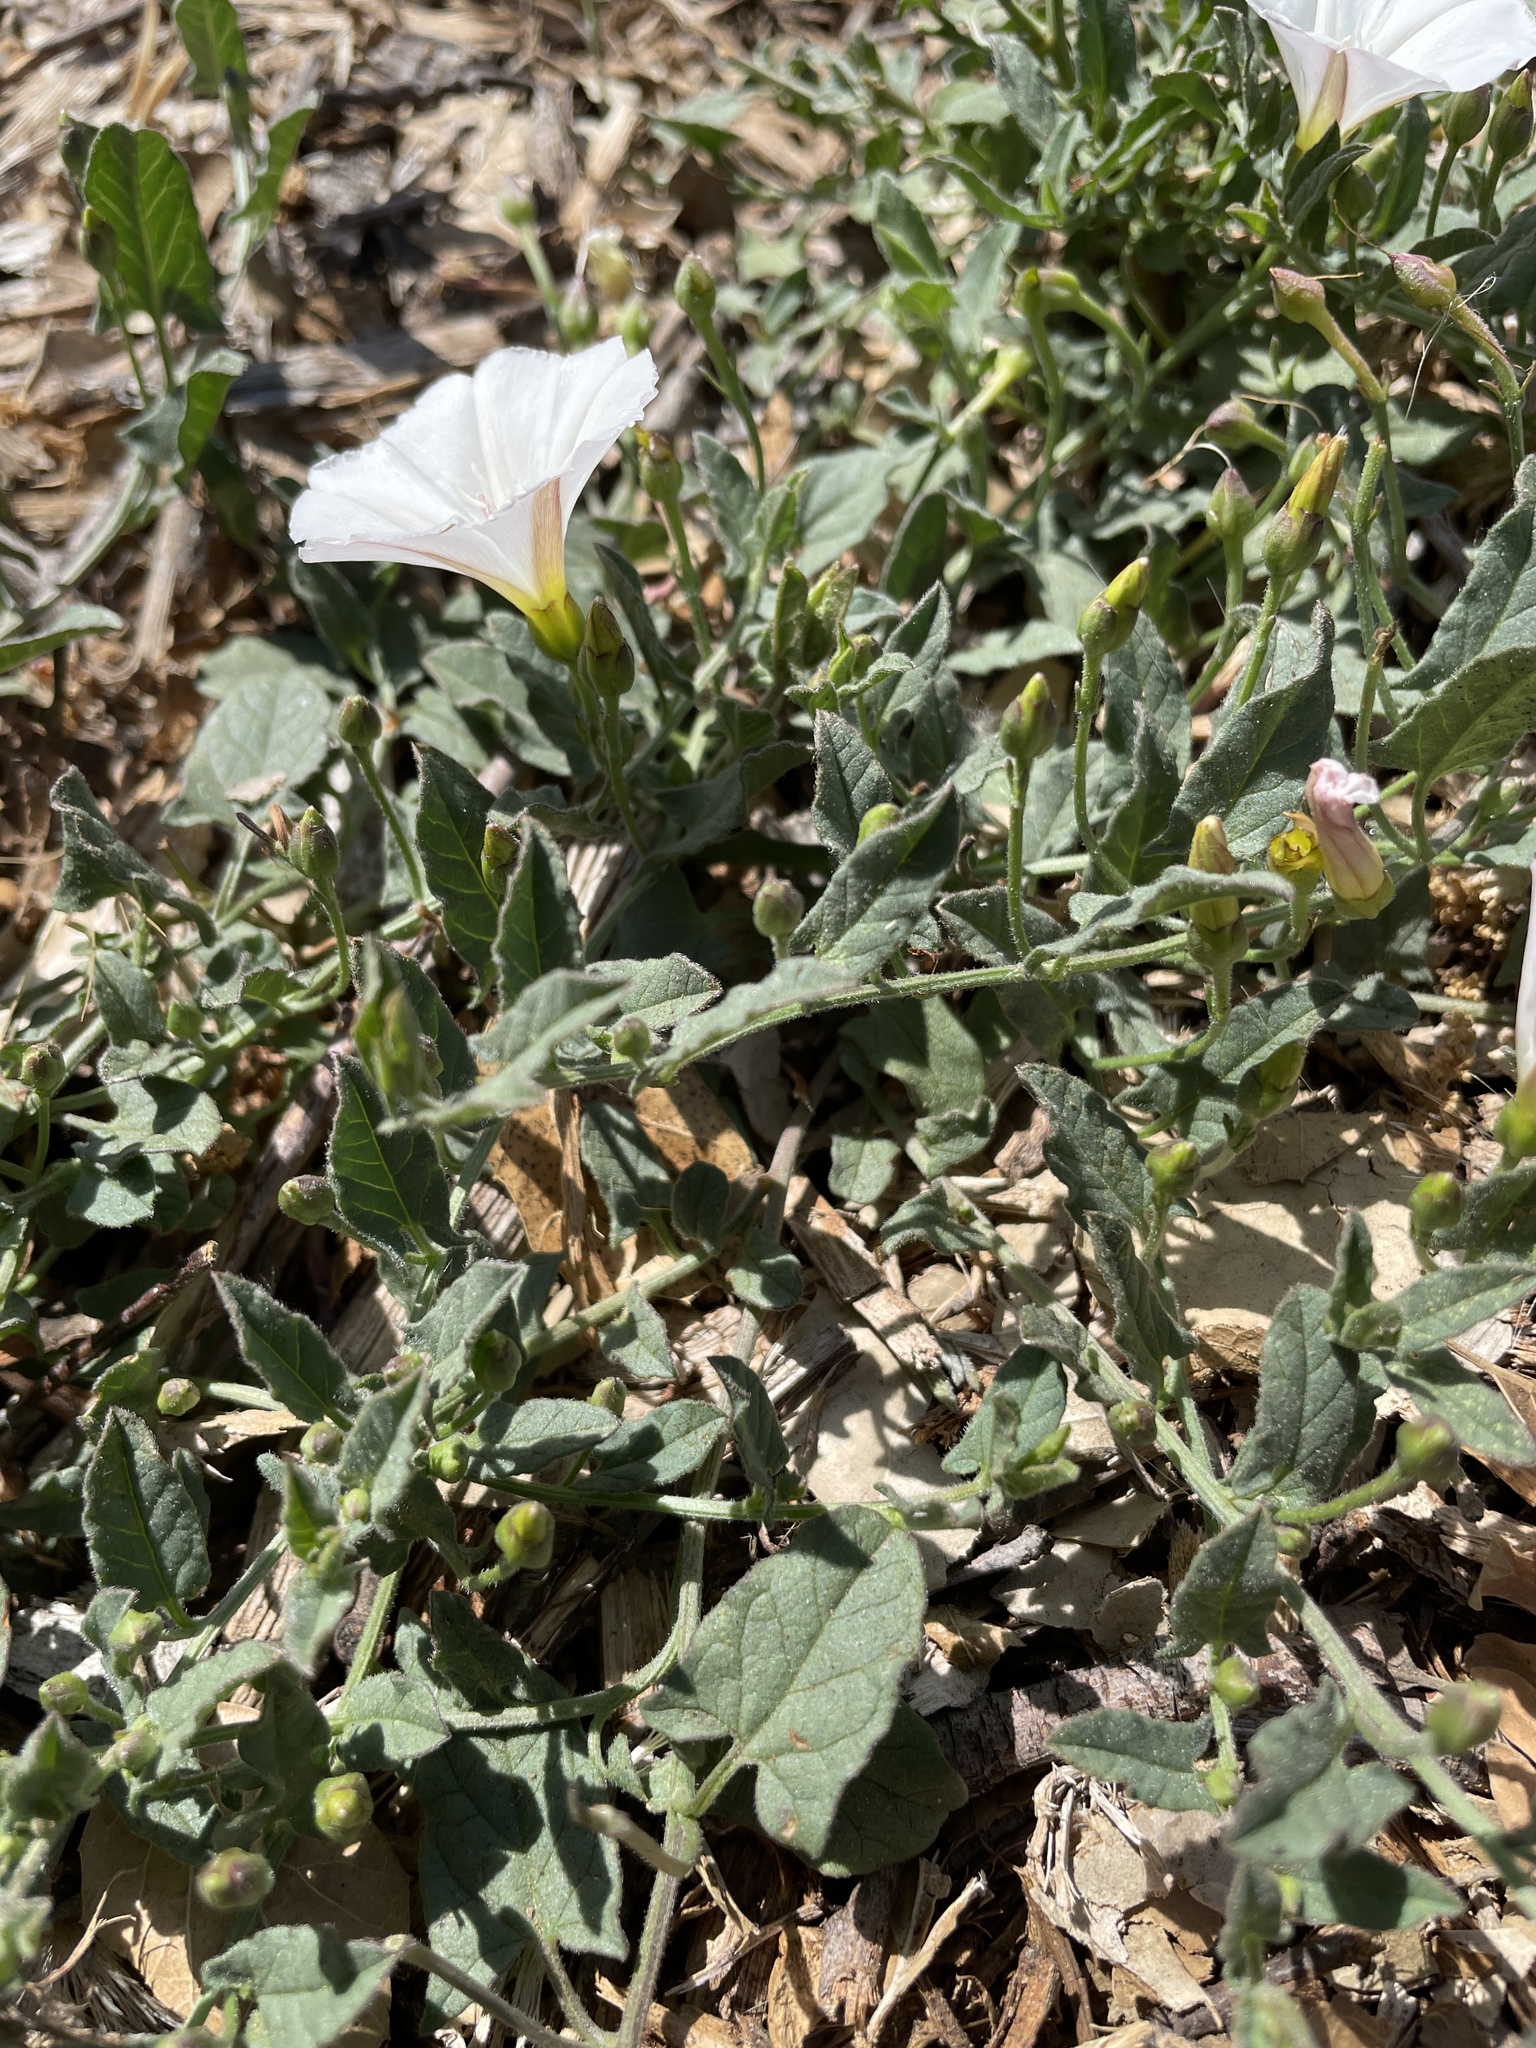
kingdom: Plantae
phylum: Tracheophyta
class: Magnoliopsida
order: Solanales
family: Convolvulaceae
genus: Convolvulus
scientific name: Convolvulus arvensis
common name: Field bindweed
